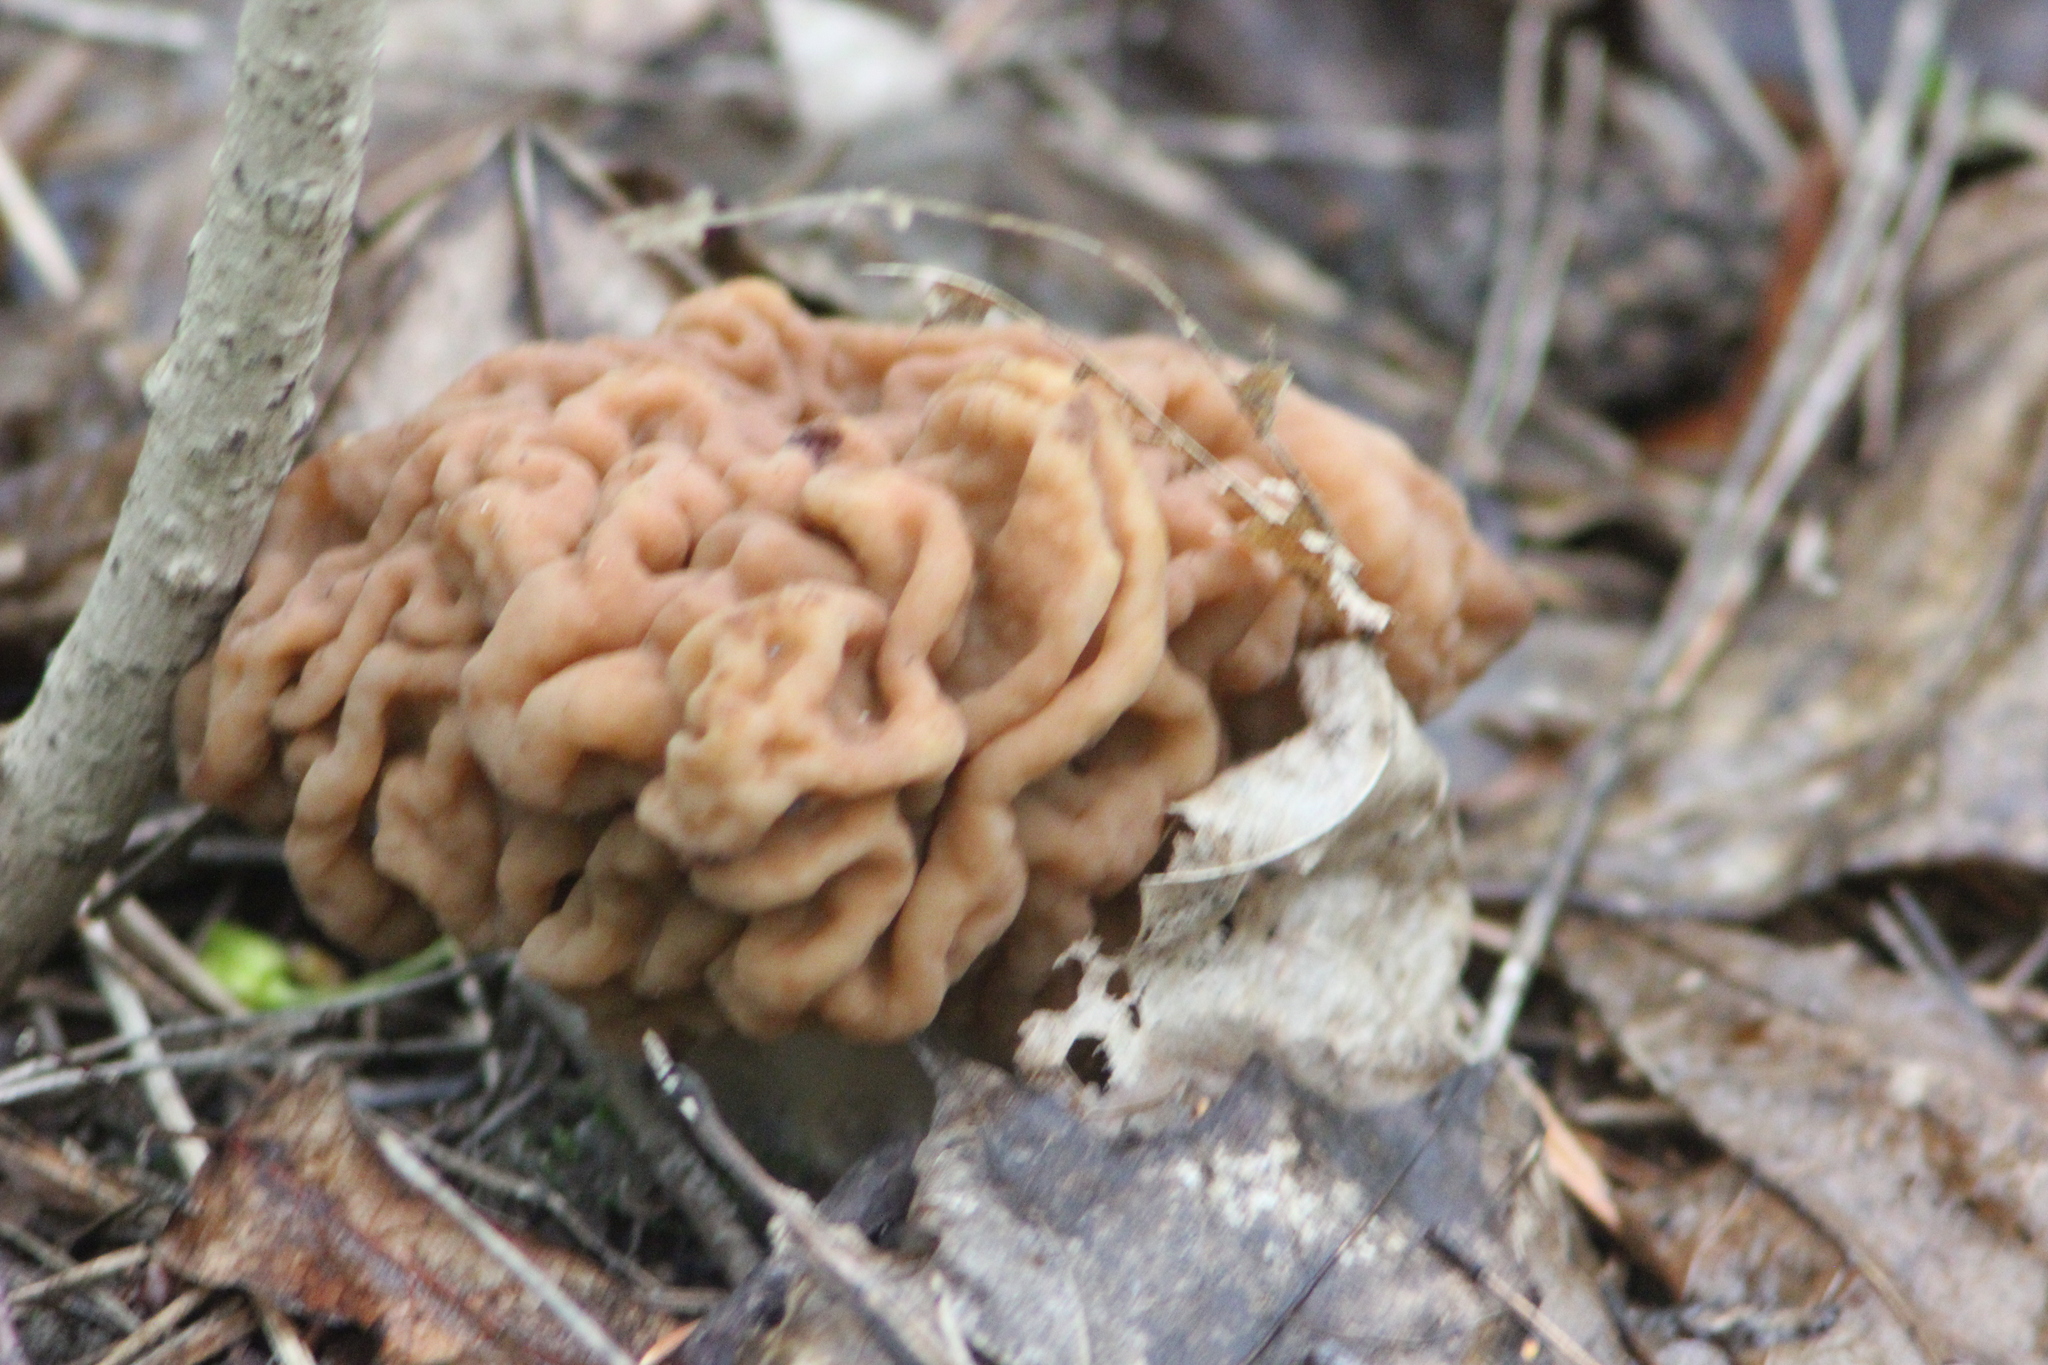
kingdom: Fungi
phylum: Ascomycota
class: Pezizomycetes
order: Pezizales
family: Discinaceae
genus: Gyromitra
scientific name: Gyromitra gigas
